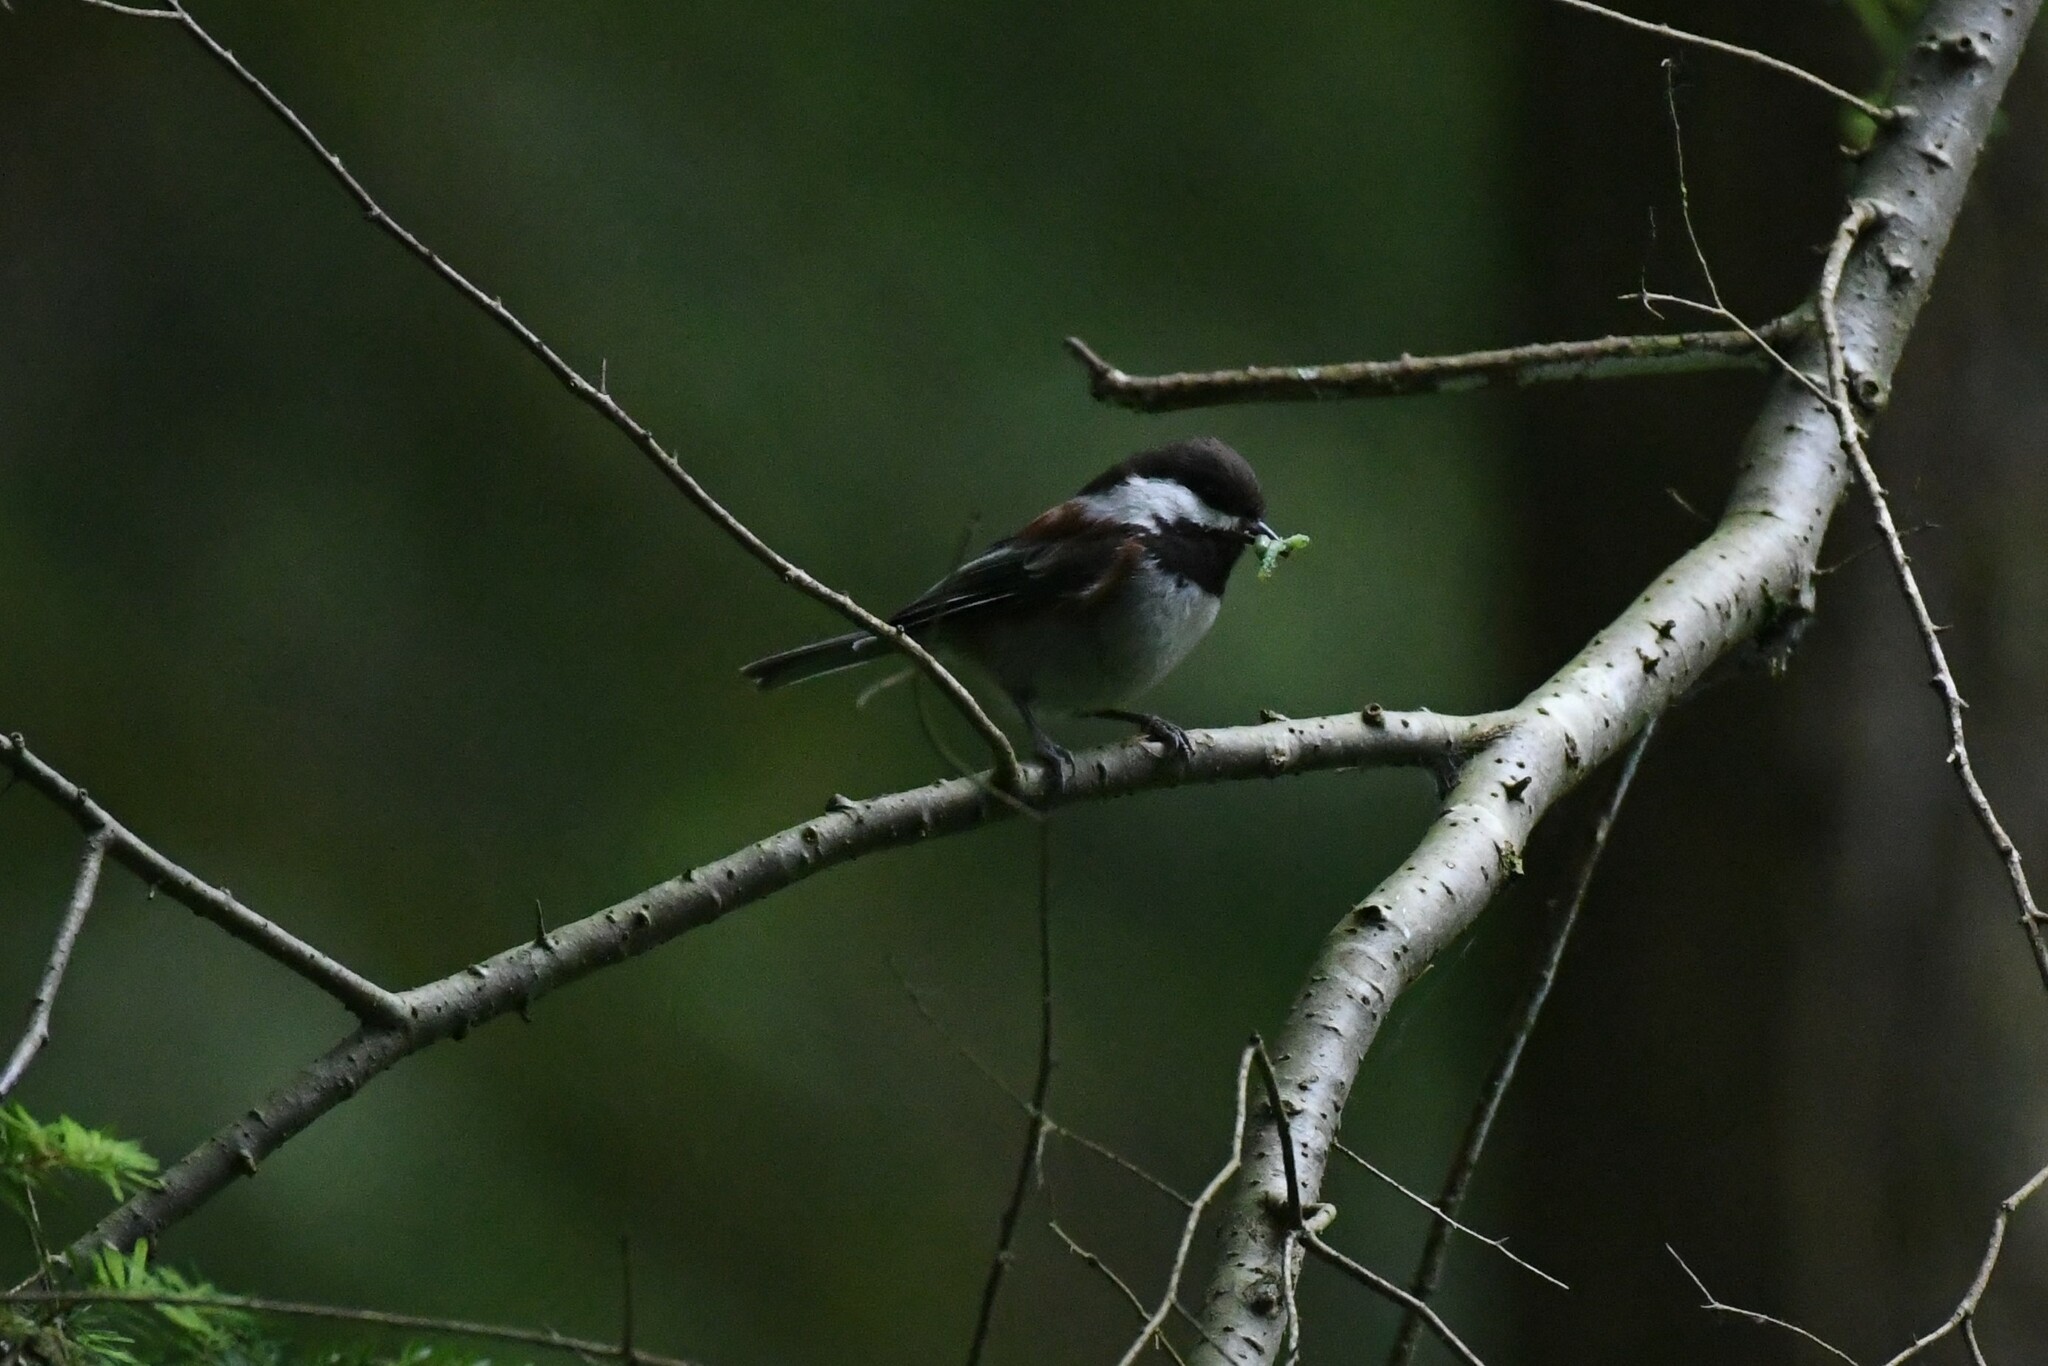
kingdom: Animalia
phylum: Chordata
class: Aves
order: Passeriformes
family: Paridae
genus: Poecile
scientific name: Poecile rufescens
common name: Chestnut-backed chickadee
